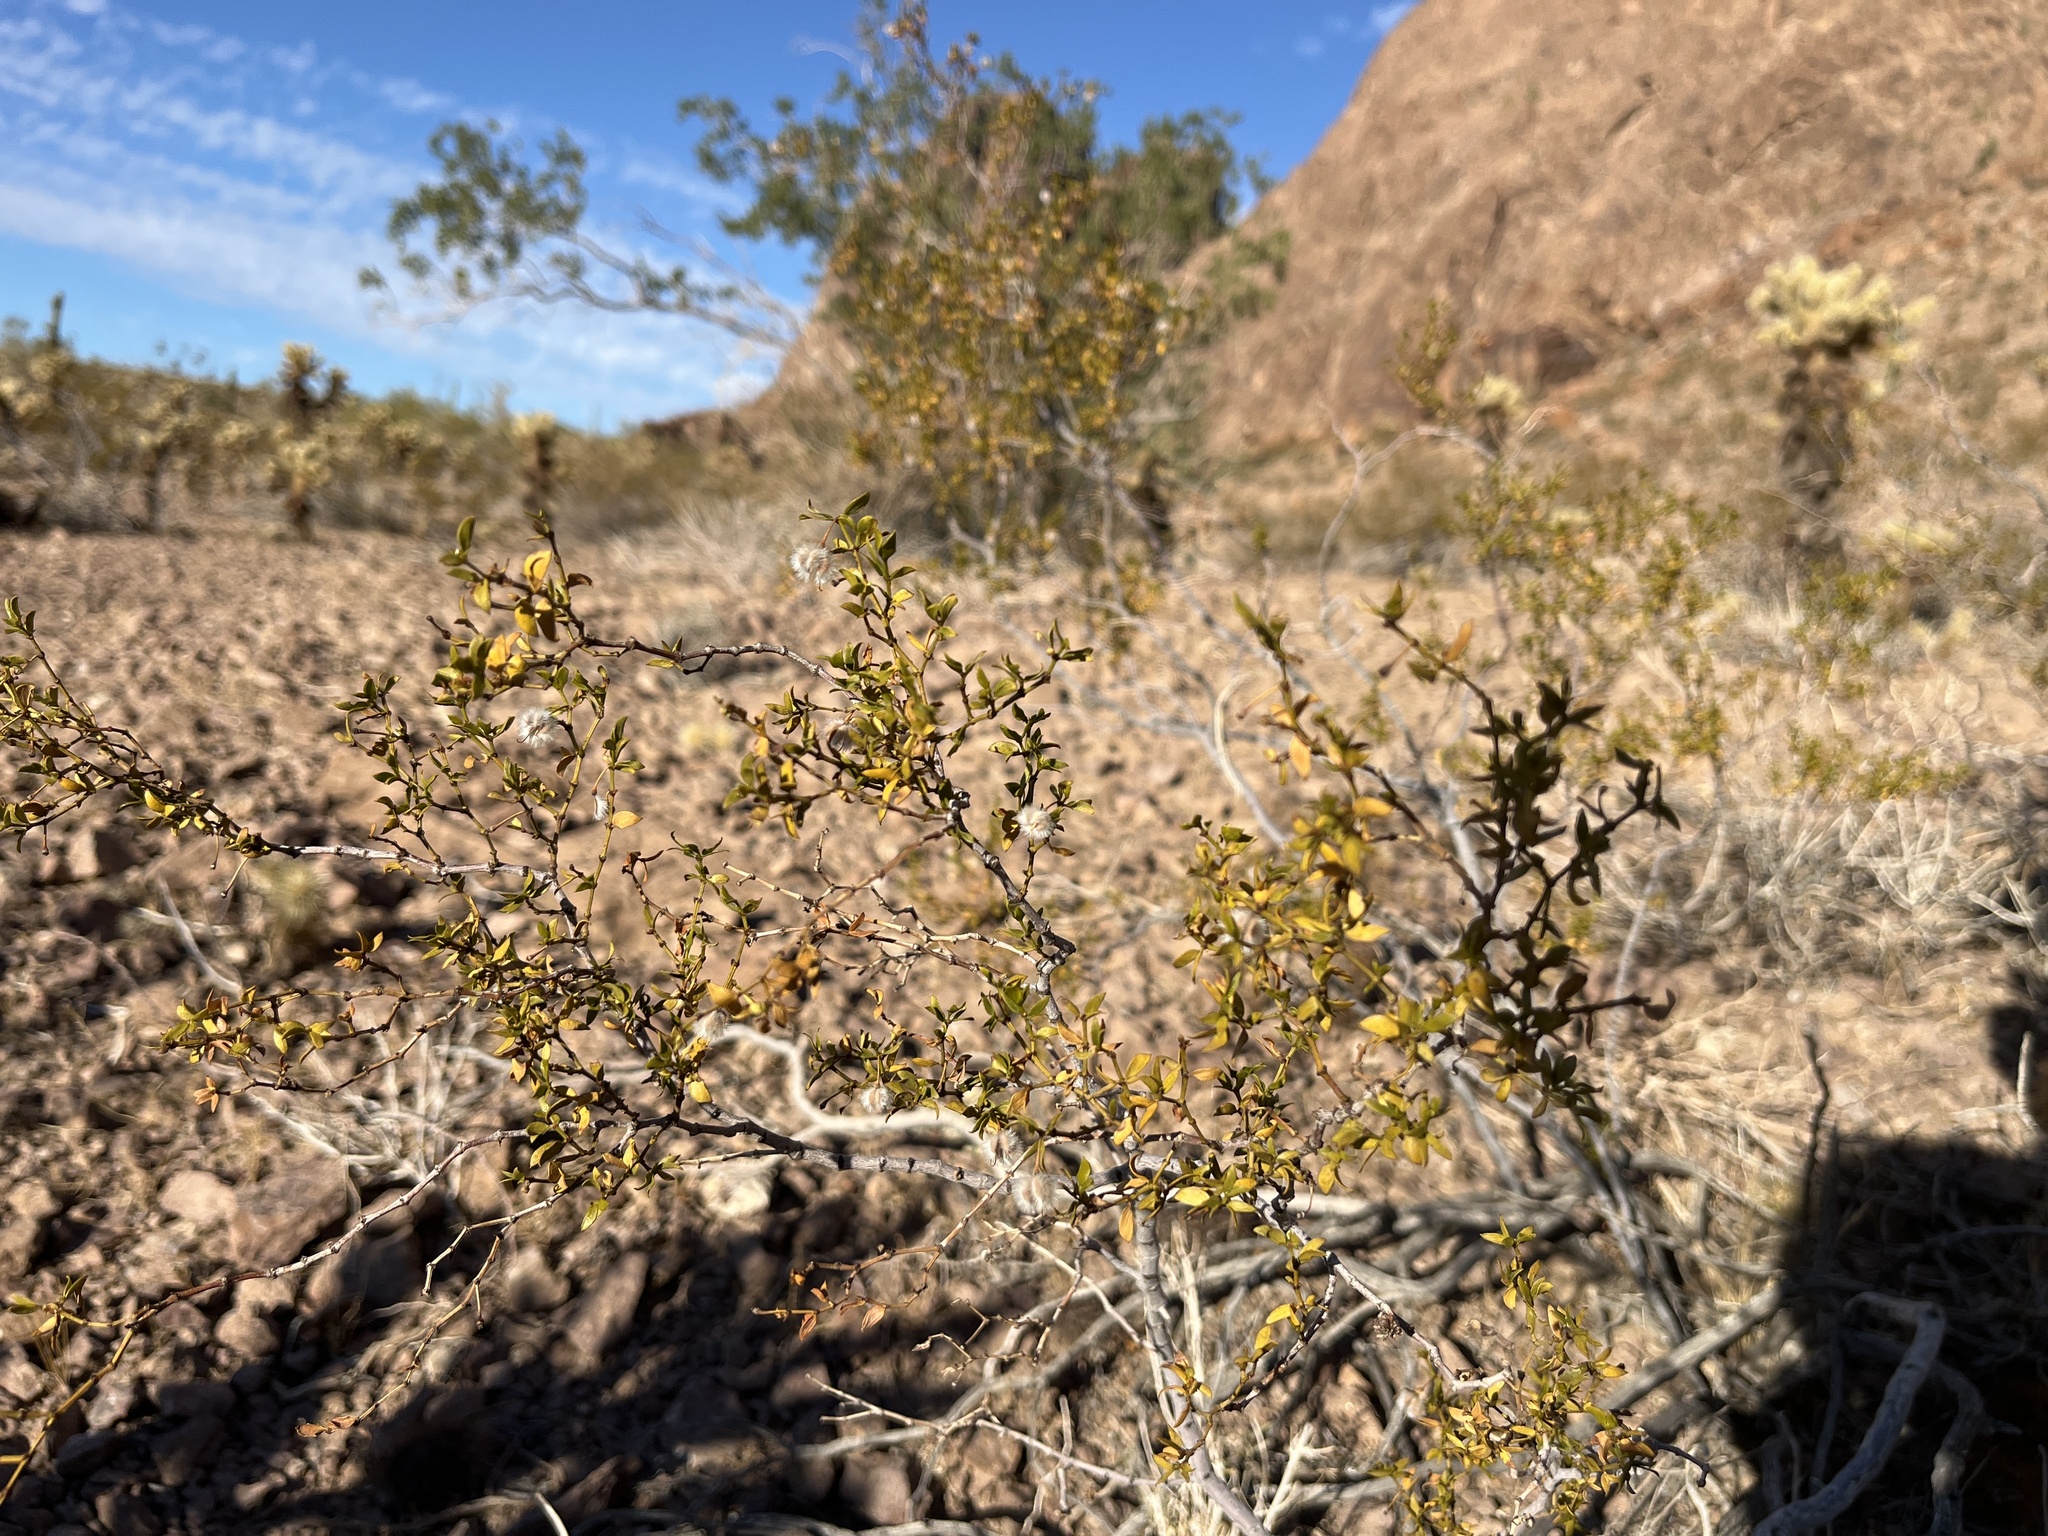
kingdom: Plantae
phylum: Tracheophyta
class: Magnoliopsida
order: Zygophyllales
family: Zygophyllaceae
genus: Larrea
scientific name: Larrea tridentata
